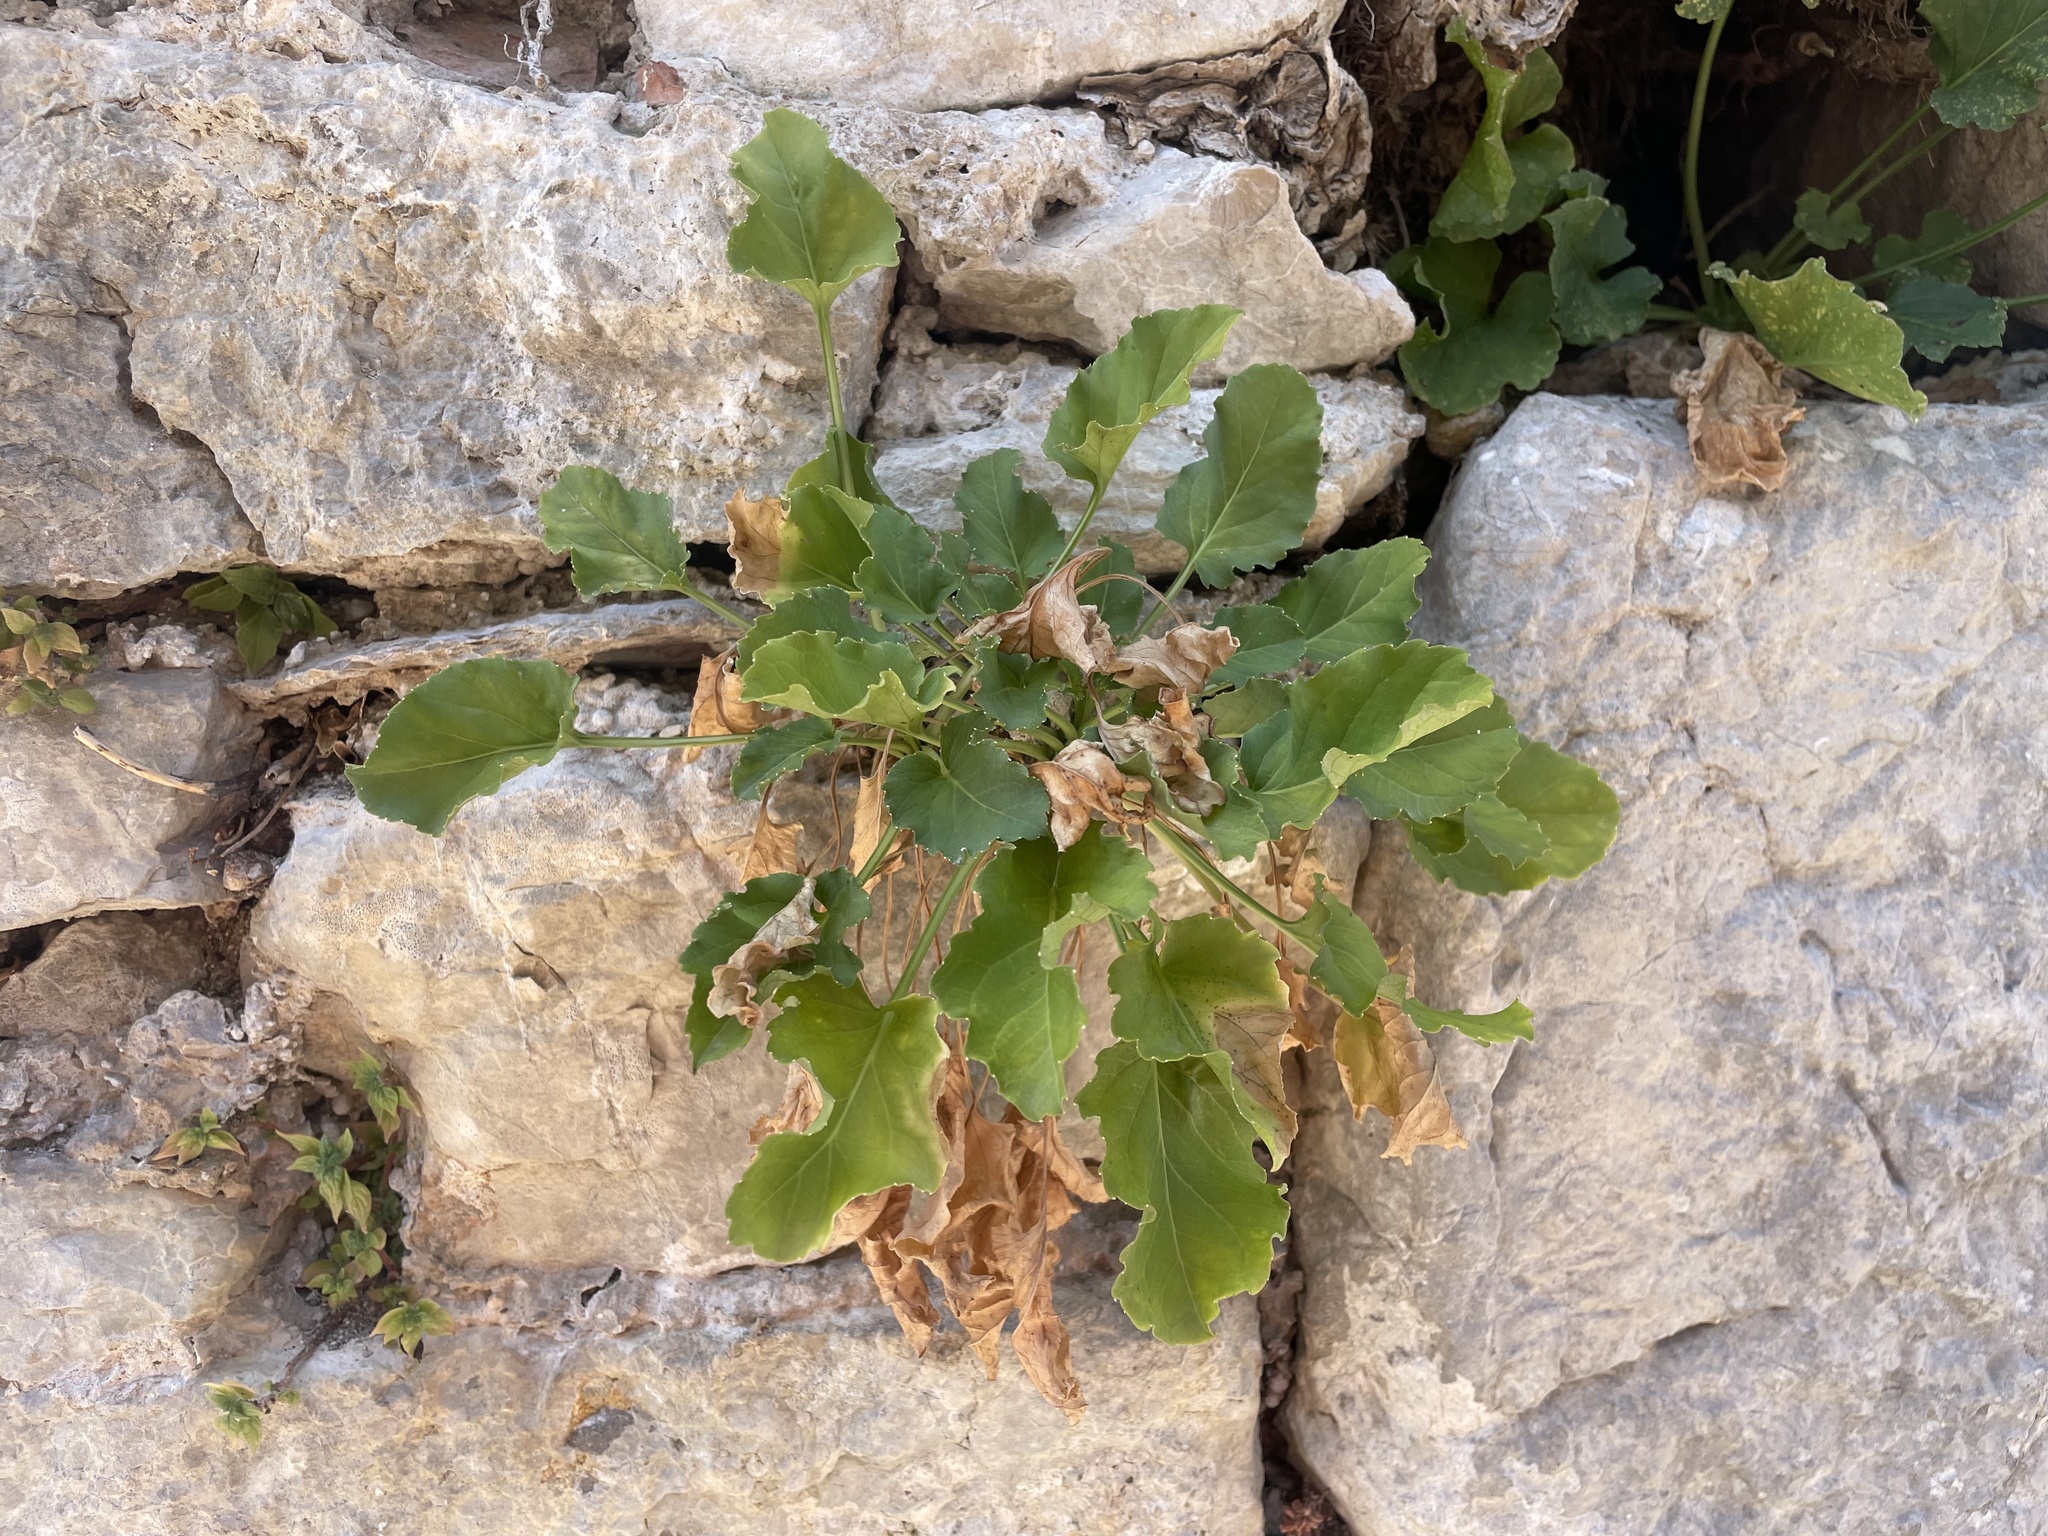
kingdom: Plantae
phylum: Tracheophyta
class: Magnoliopsida
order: Asterales
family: Campanulaceae
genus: Campanula
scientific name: Campanula pyramidalis
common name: Chimney bellflower
